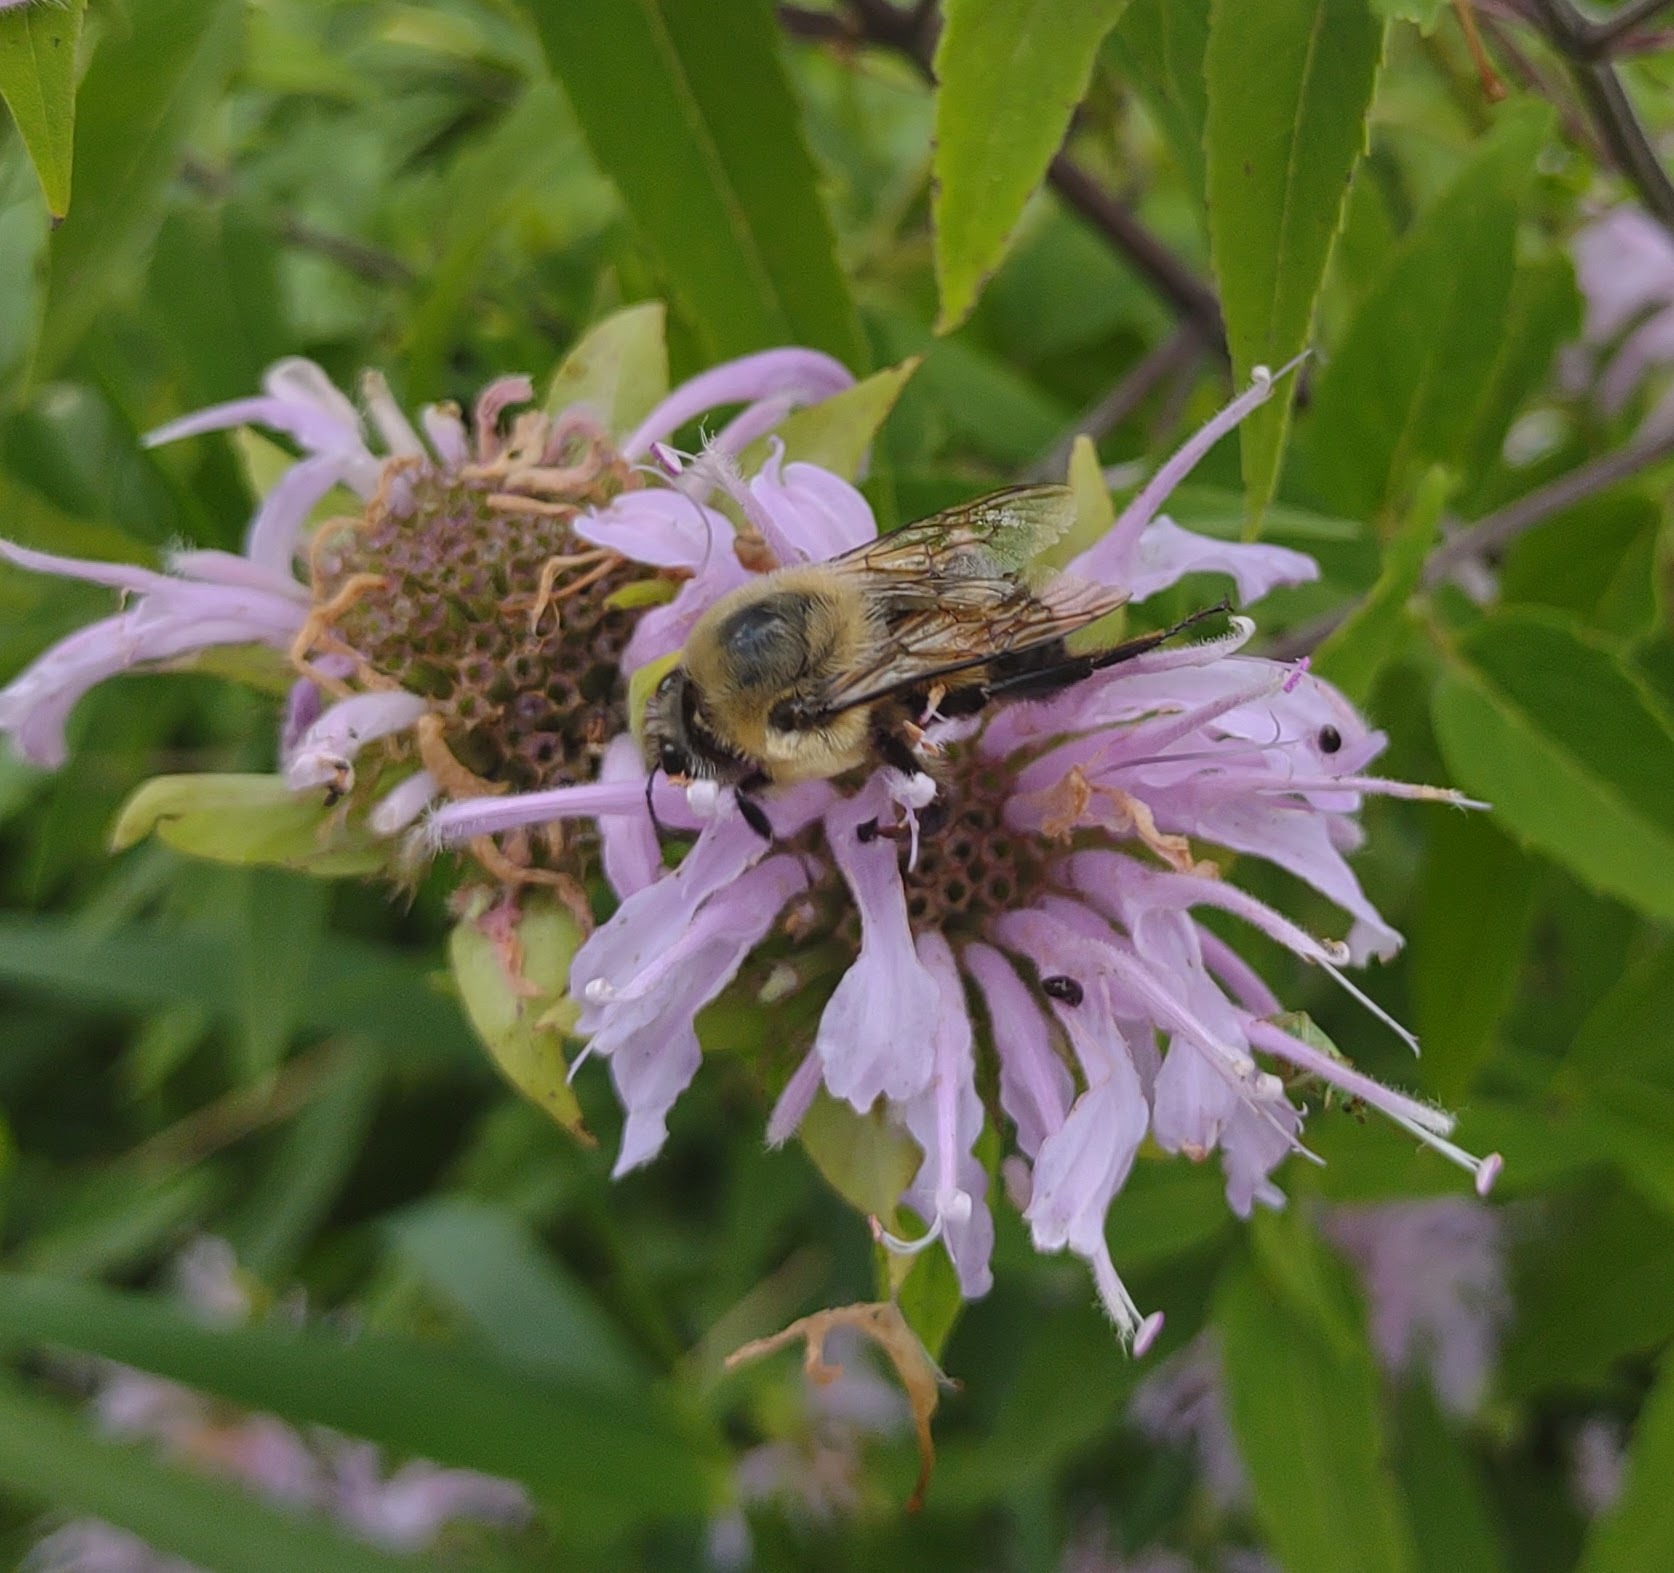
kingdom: Animalia
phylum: Arthropoda
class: Insecta
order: Hymenoptera
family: Apidae
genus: Bombus
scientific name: Bombus griseocollis
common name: Brown-belted bumble bee
